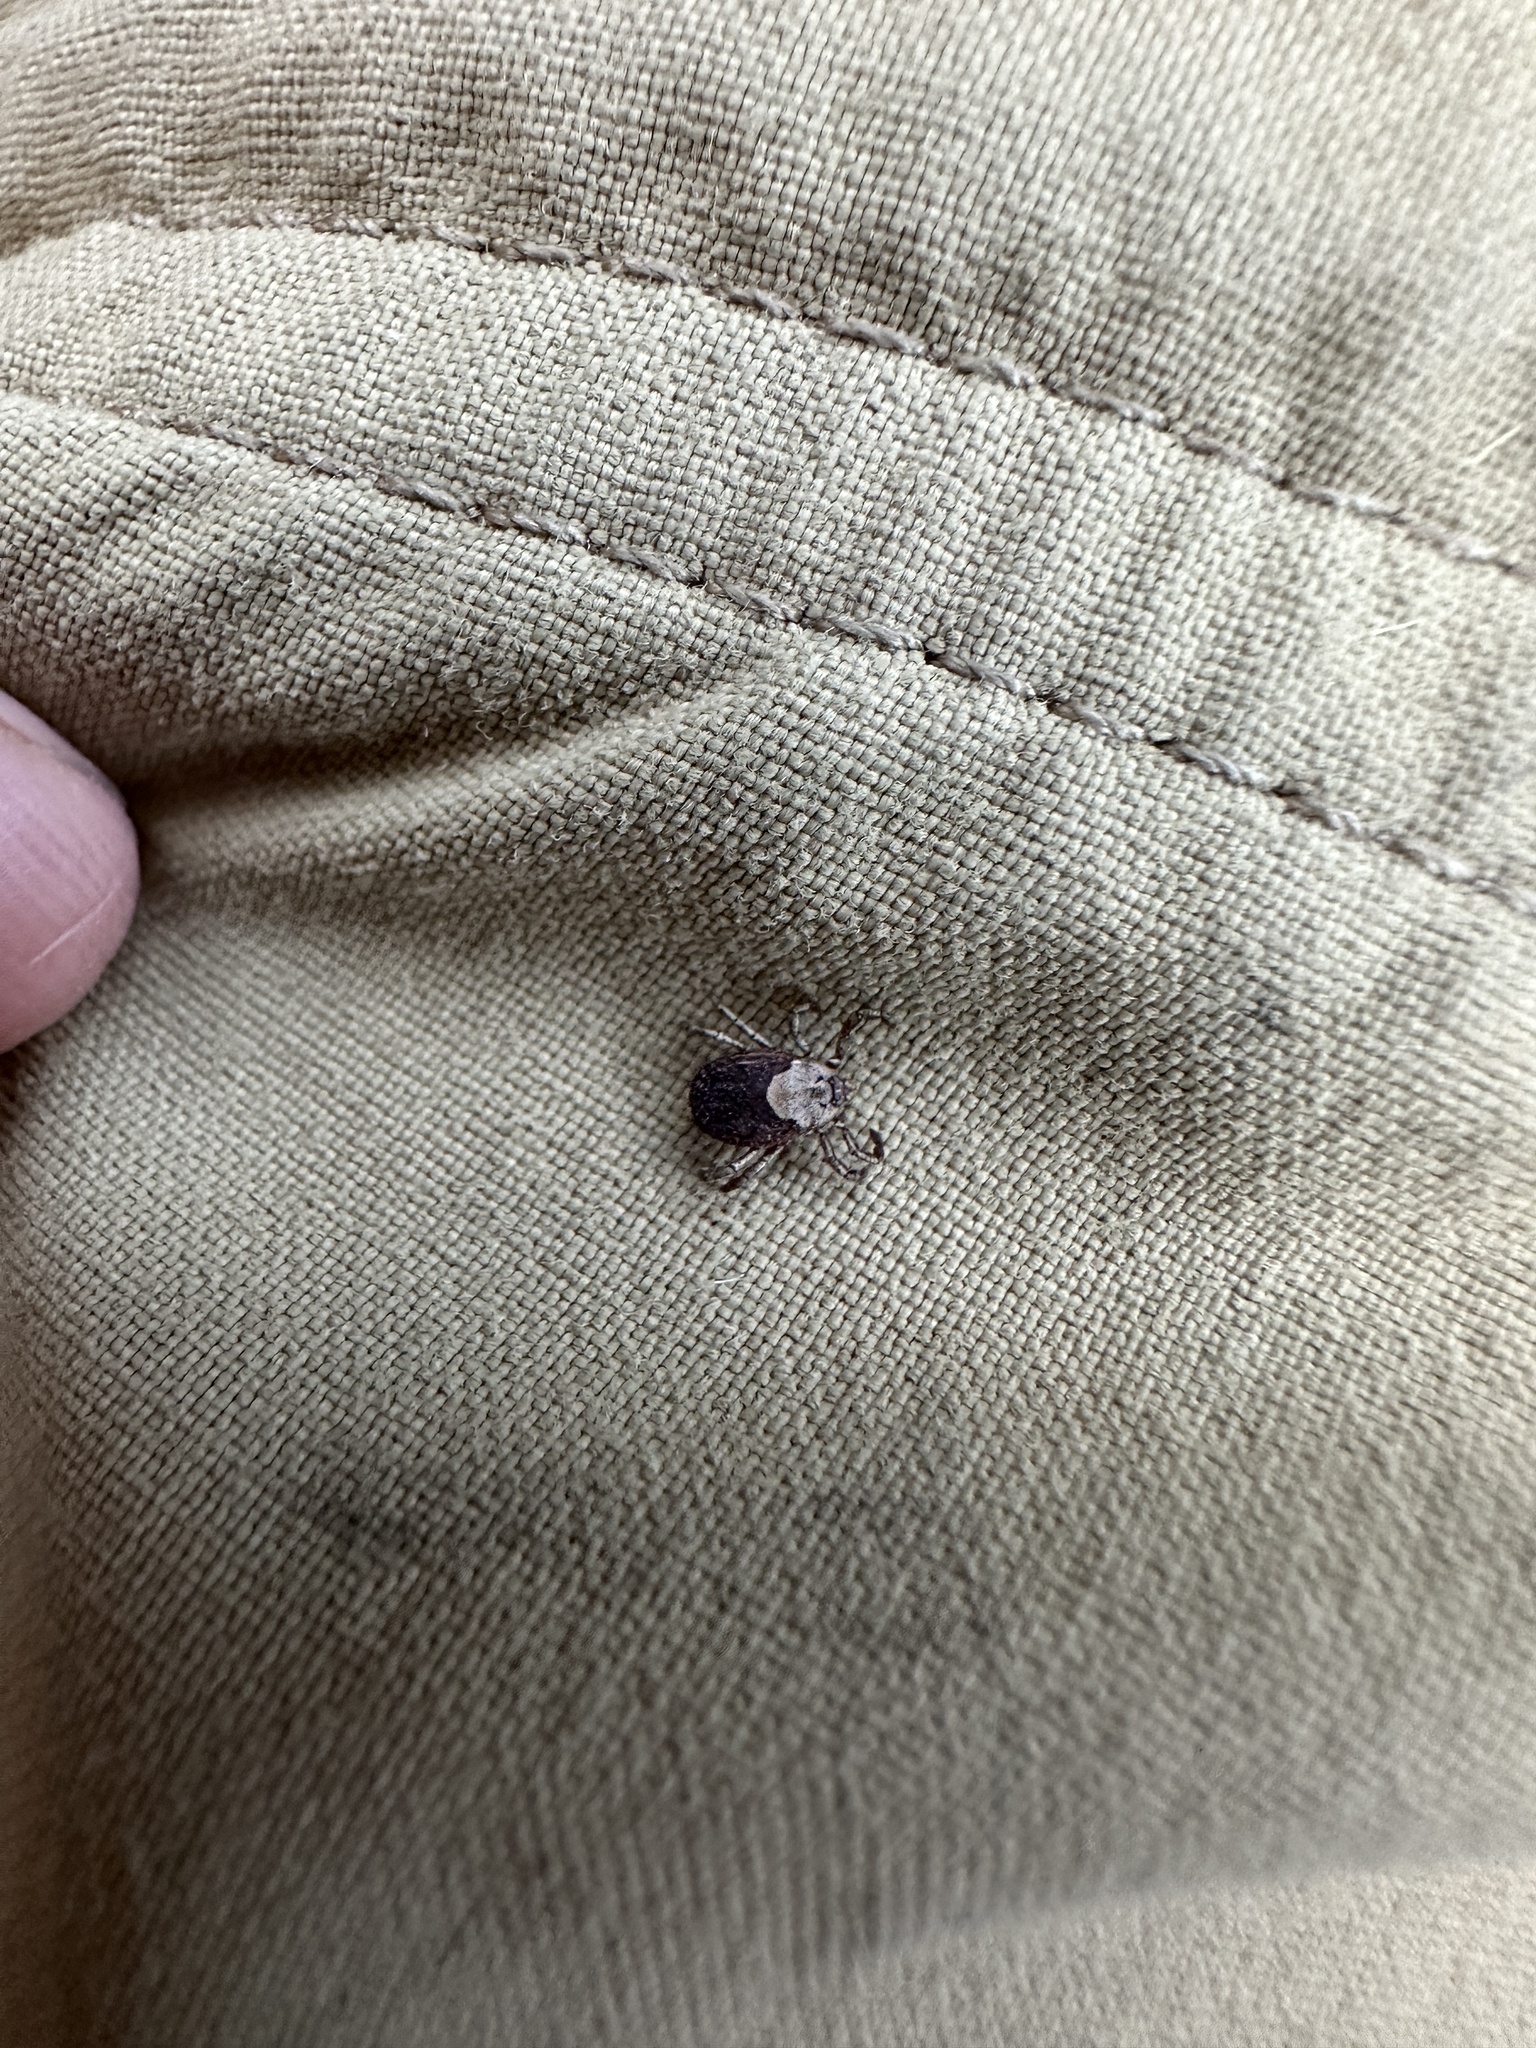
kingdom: Animalia
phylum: Arthropoda
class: Arachnida
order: Ixodida
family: Ixodidae
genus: Dermacentor
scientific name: Dermacentor occidentalis
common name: Net tick
